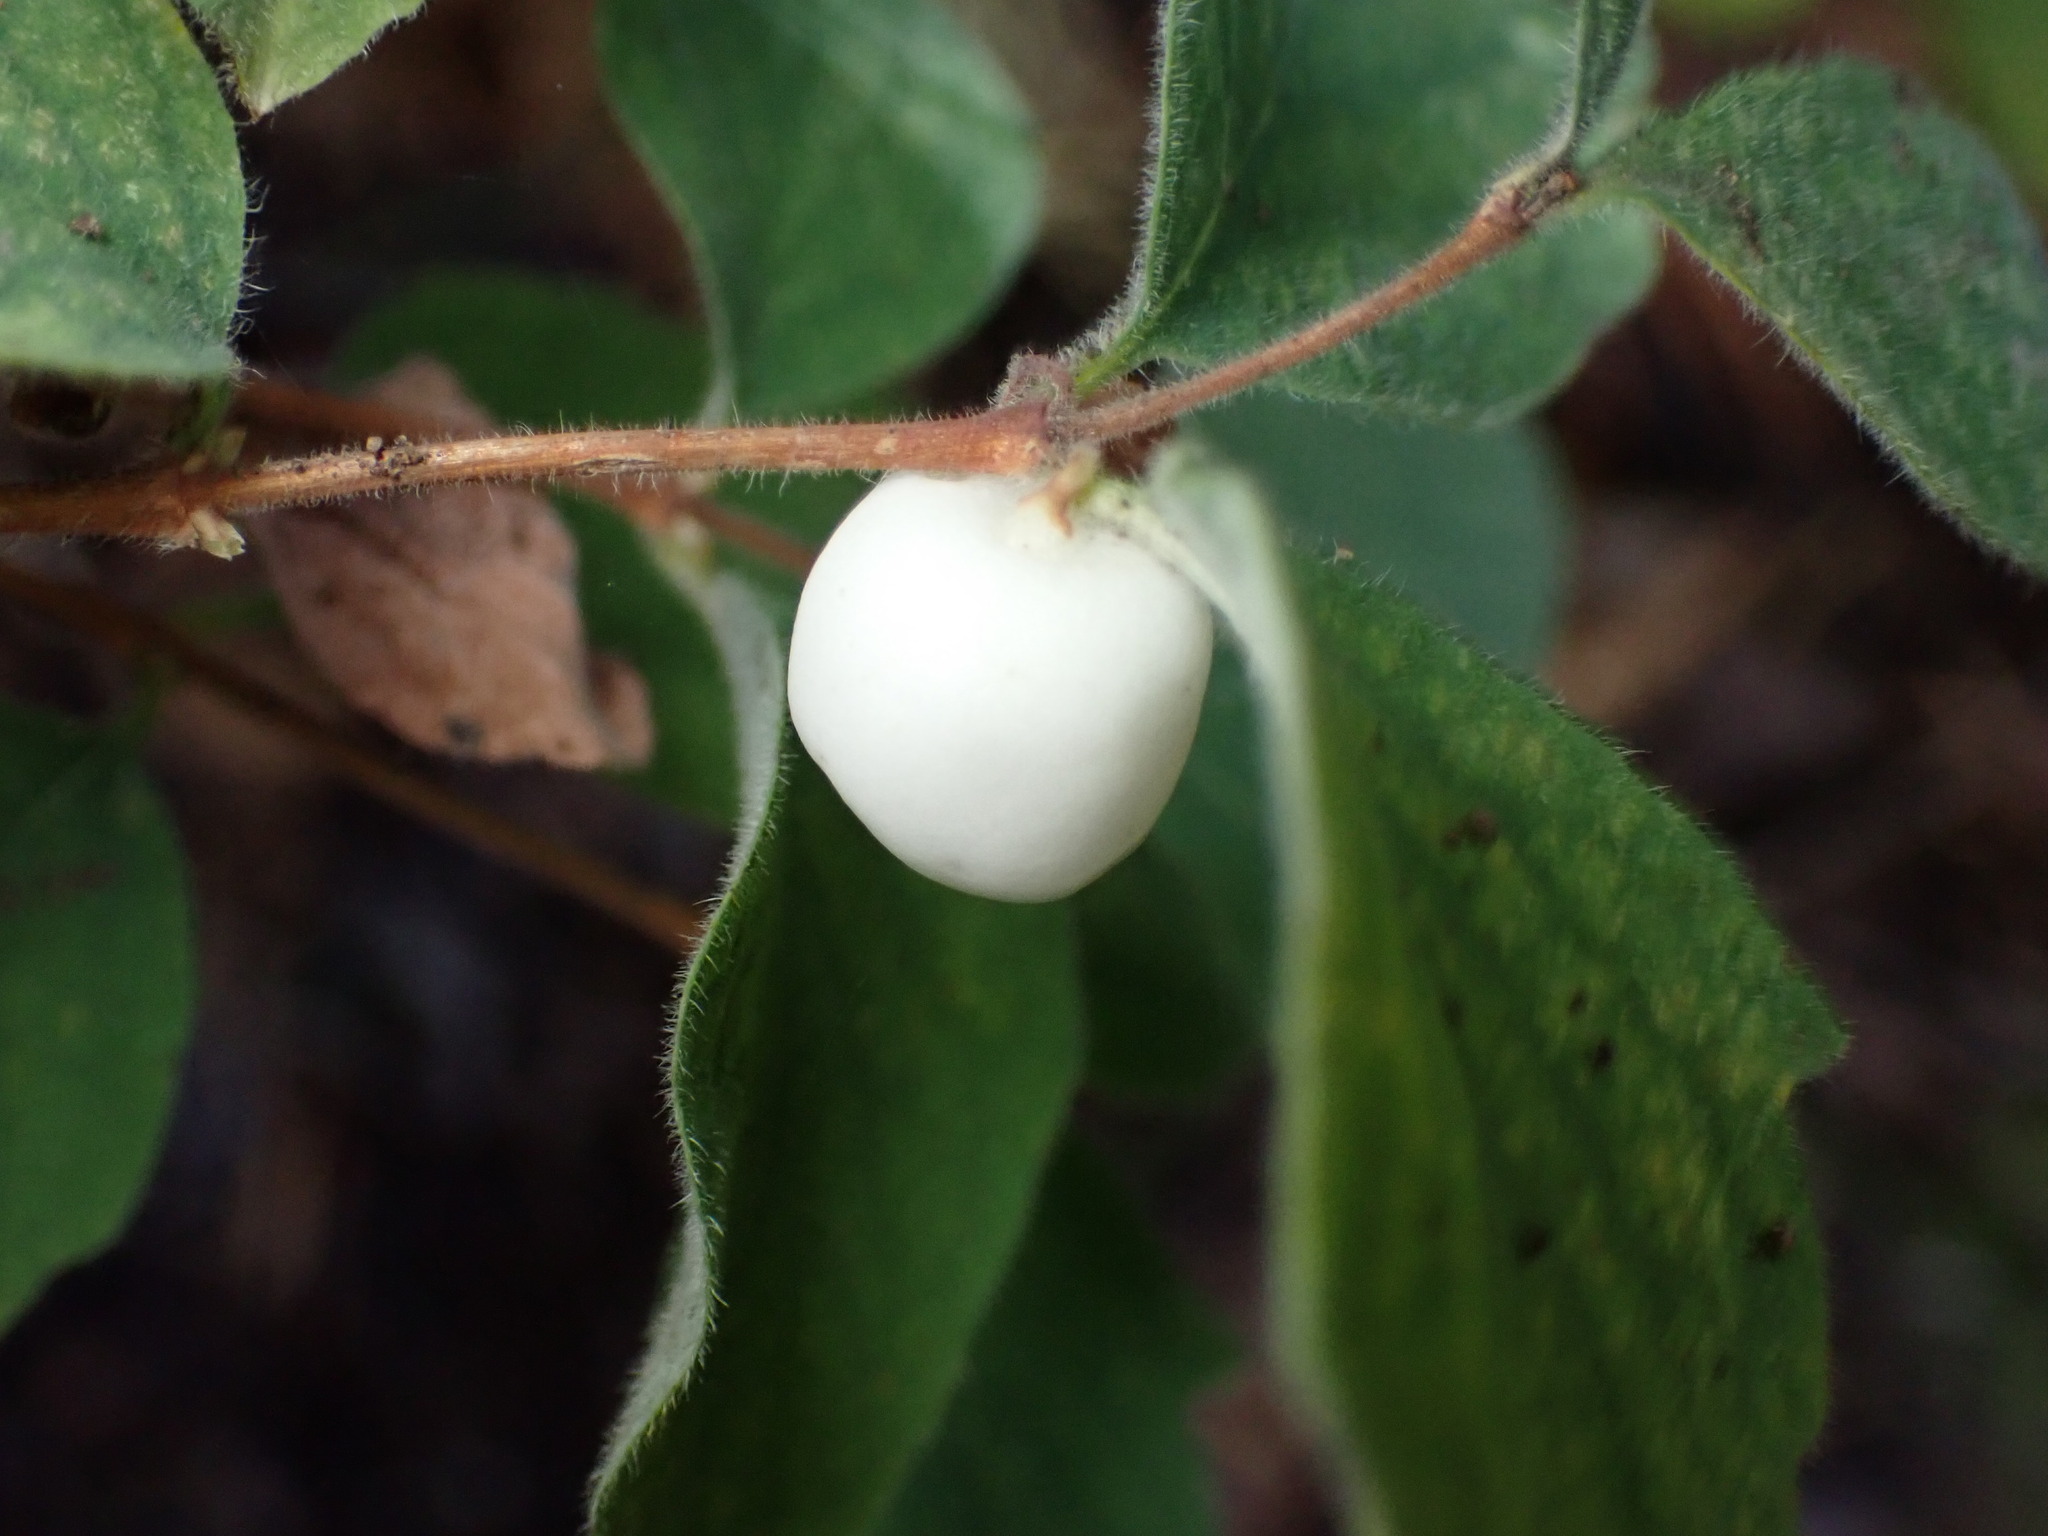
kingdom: Plantae
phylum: Tracheophyta
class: Magnoliopsida
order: Dipsacales
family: Caprifoliaceae
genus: Symphoricarpos
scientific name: Symphoricarpos mollis
